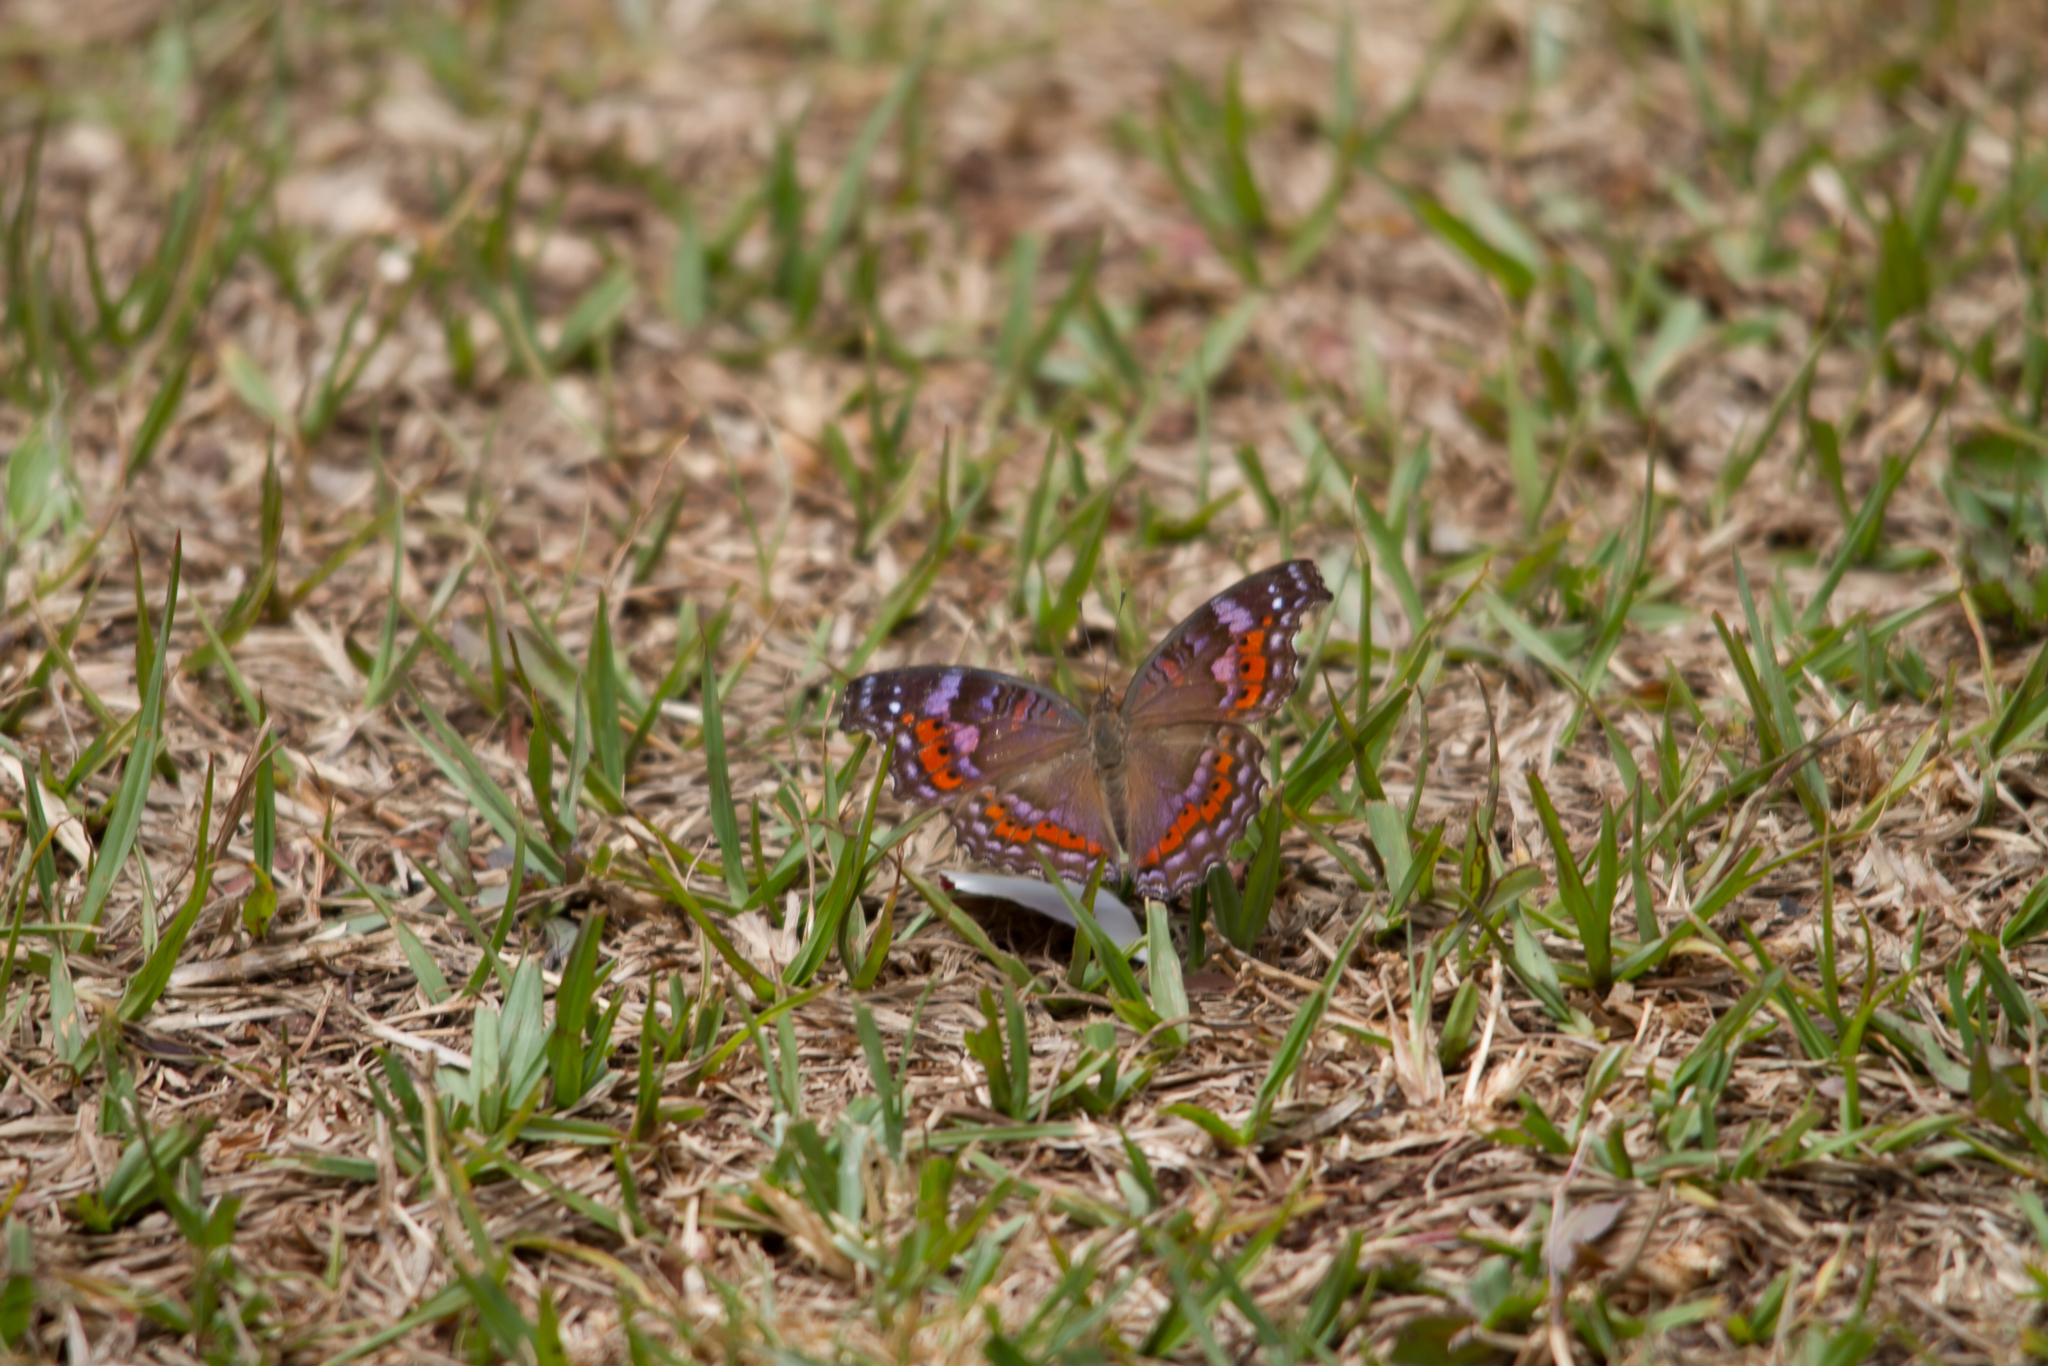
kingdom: Animalia
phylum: Arthropoda
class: Insecta
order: Lepidoptera
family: Nymphalidae
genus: Precis
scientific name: Precis octavia
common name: Gaudy commodore
